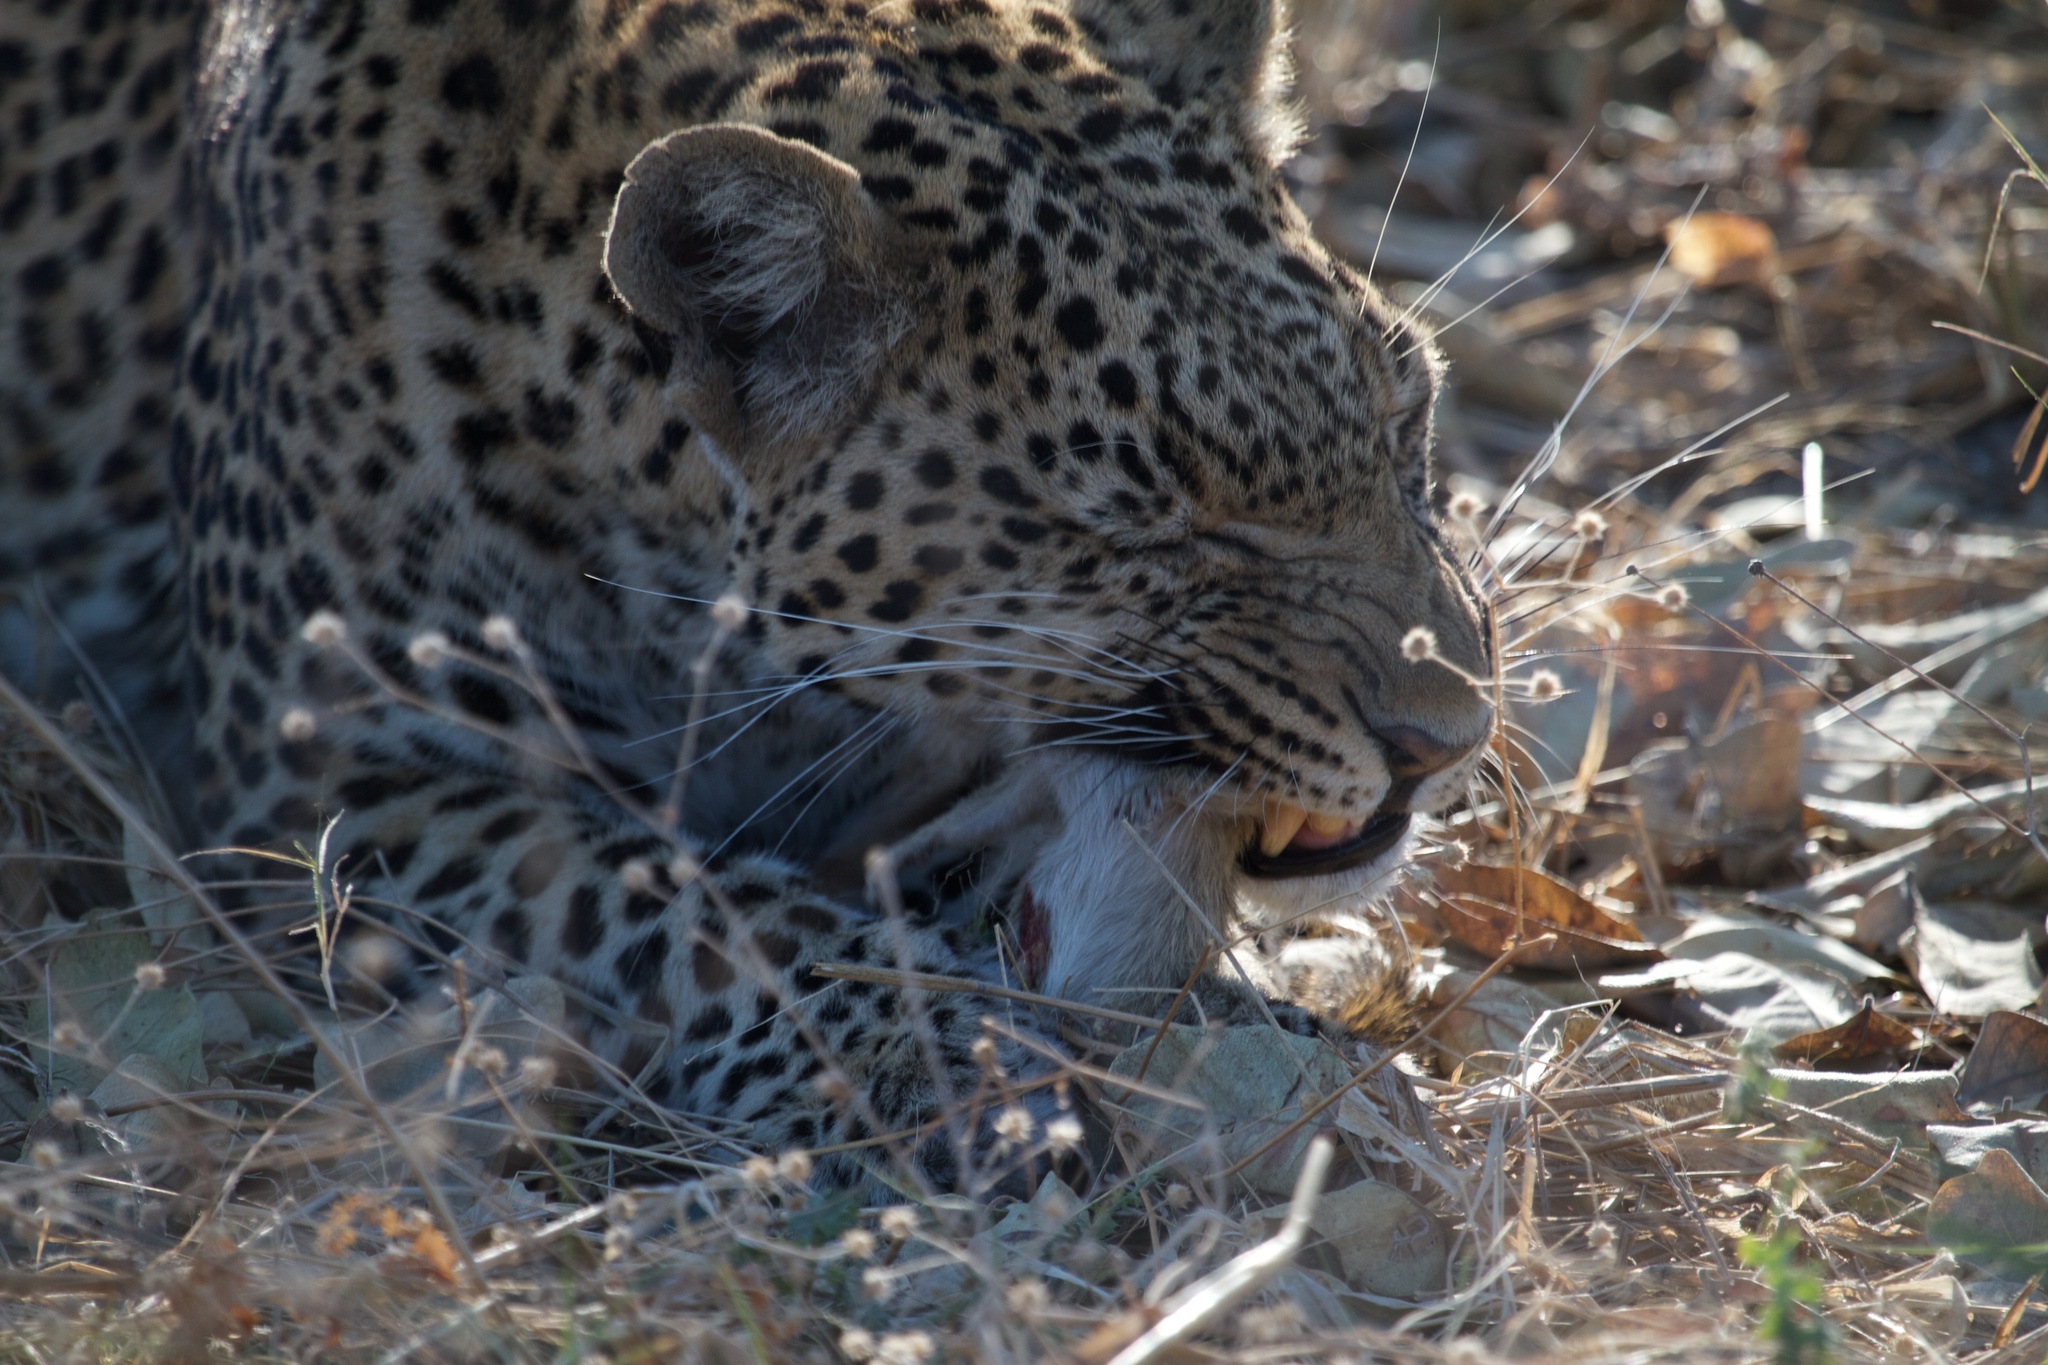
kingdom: Animalia
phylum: Chordata
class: Mammalia
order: Carnivora
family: Felidae
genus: Panthera
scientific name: Panthera pardus
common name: Leopard
